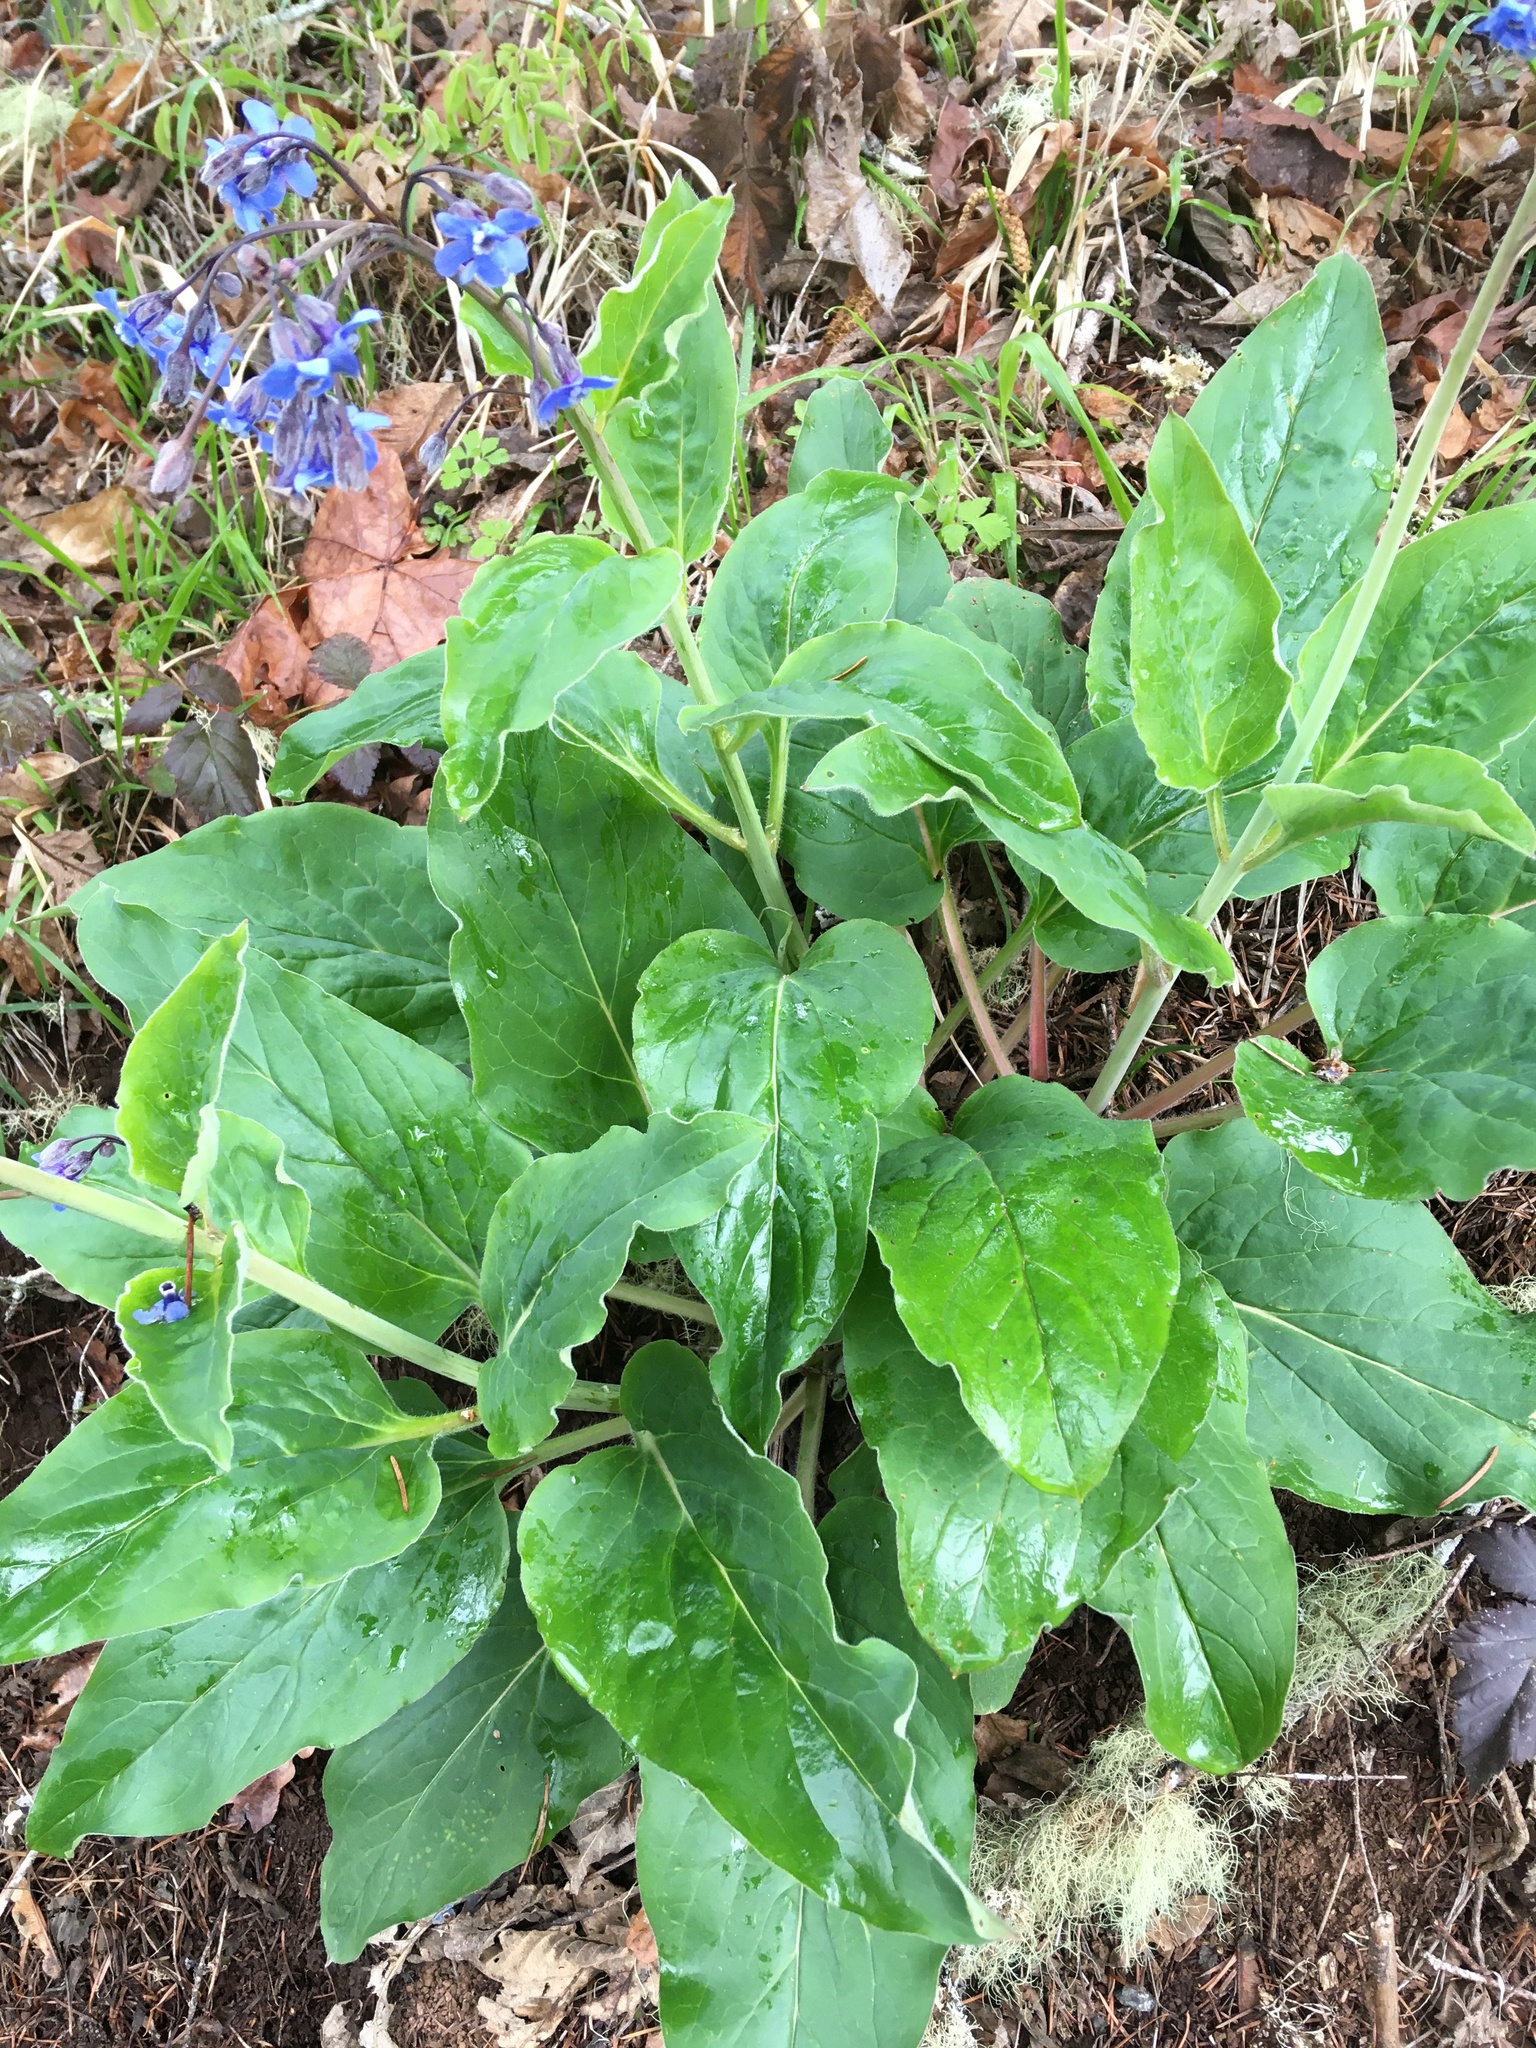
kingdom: Plantae
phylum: Tracheophyta
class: Magnoliopsida
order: Boraginales
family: Boraginaceae
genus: Adelinia
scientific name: Adelinia grande
